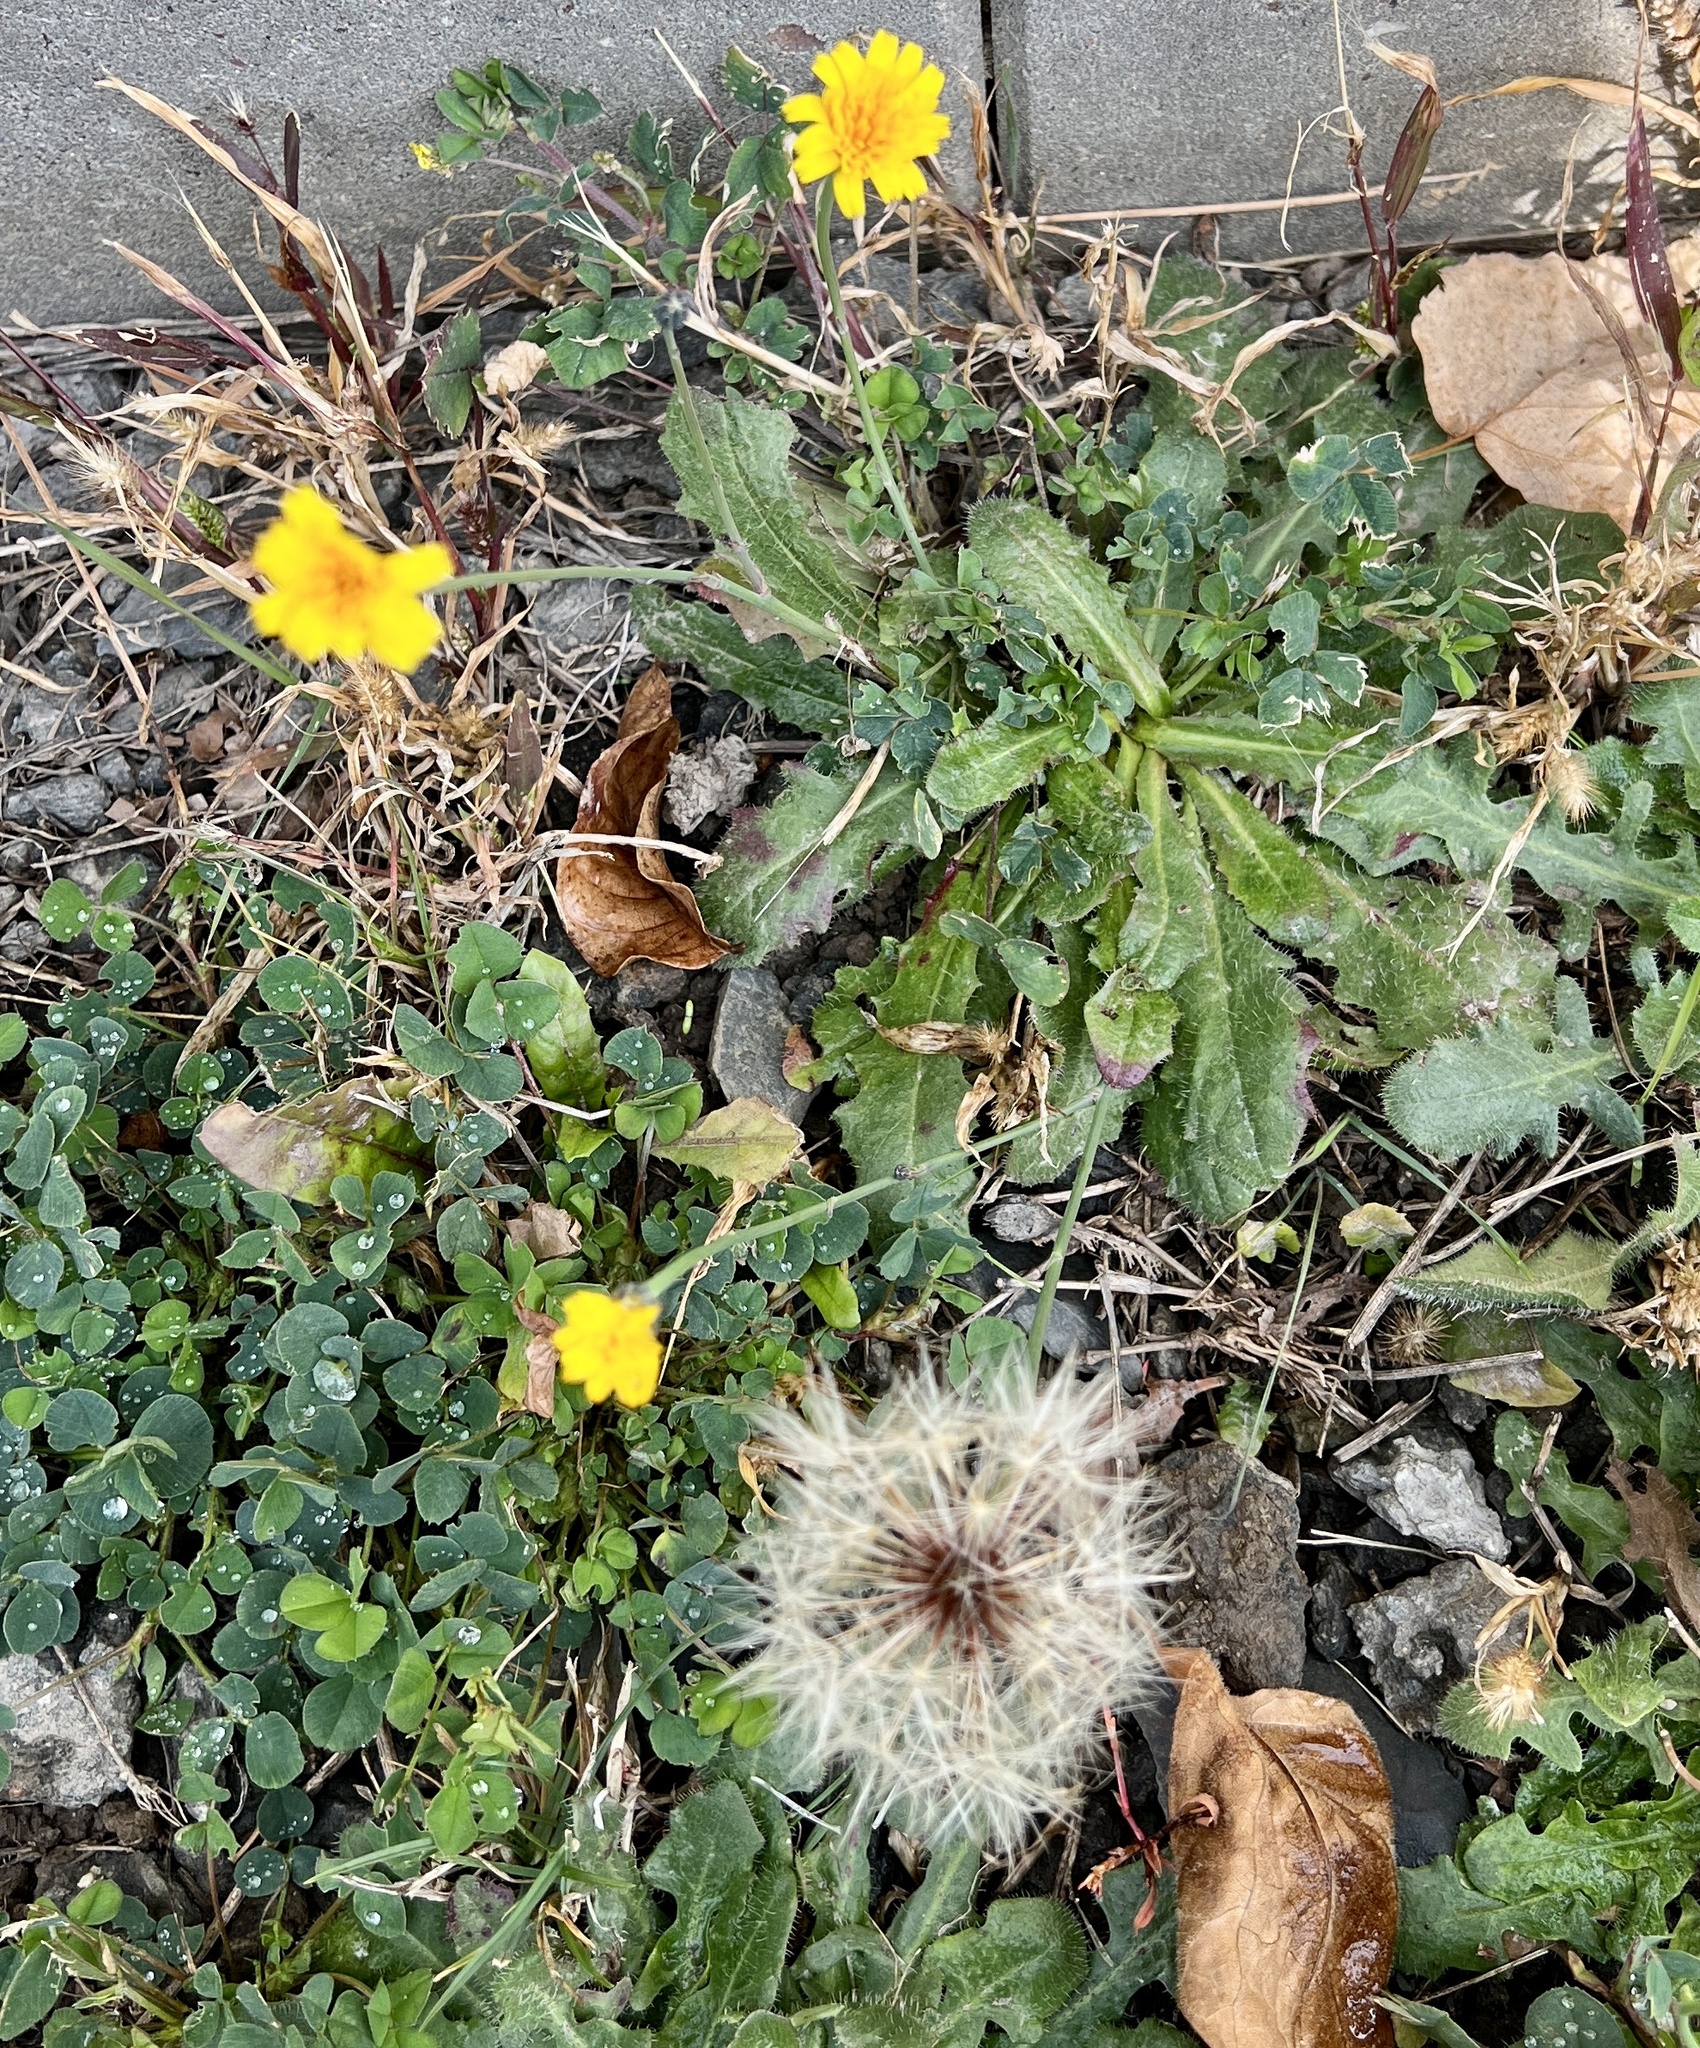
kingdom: Plantae
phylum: Tracheophyta
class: Magnoliopsida
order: Asterales
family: Asteraceae
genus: Hypochaeris
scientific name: Hypochaeris radicata
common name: Flatweed
